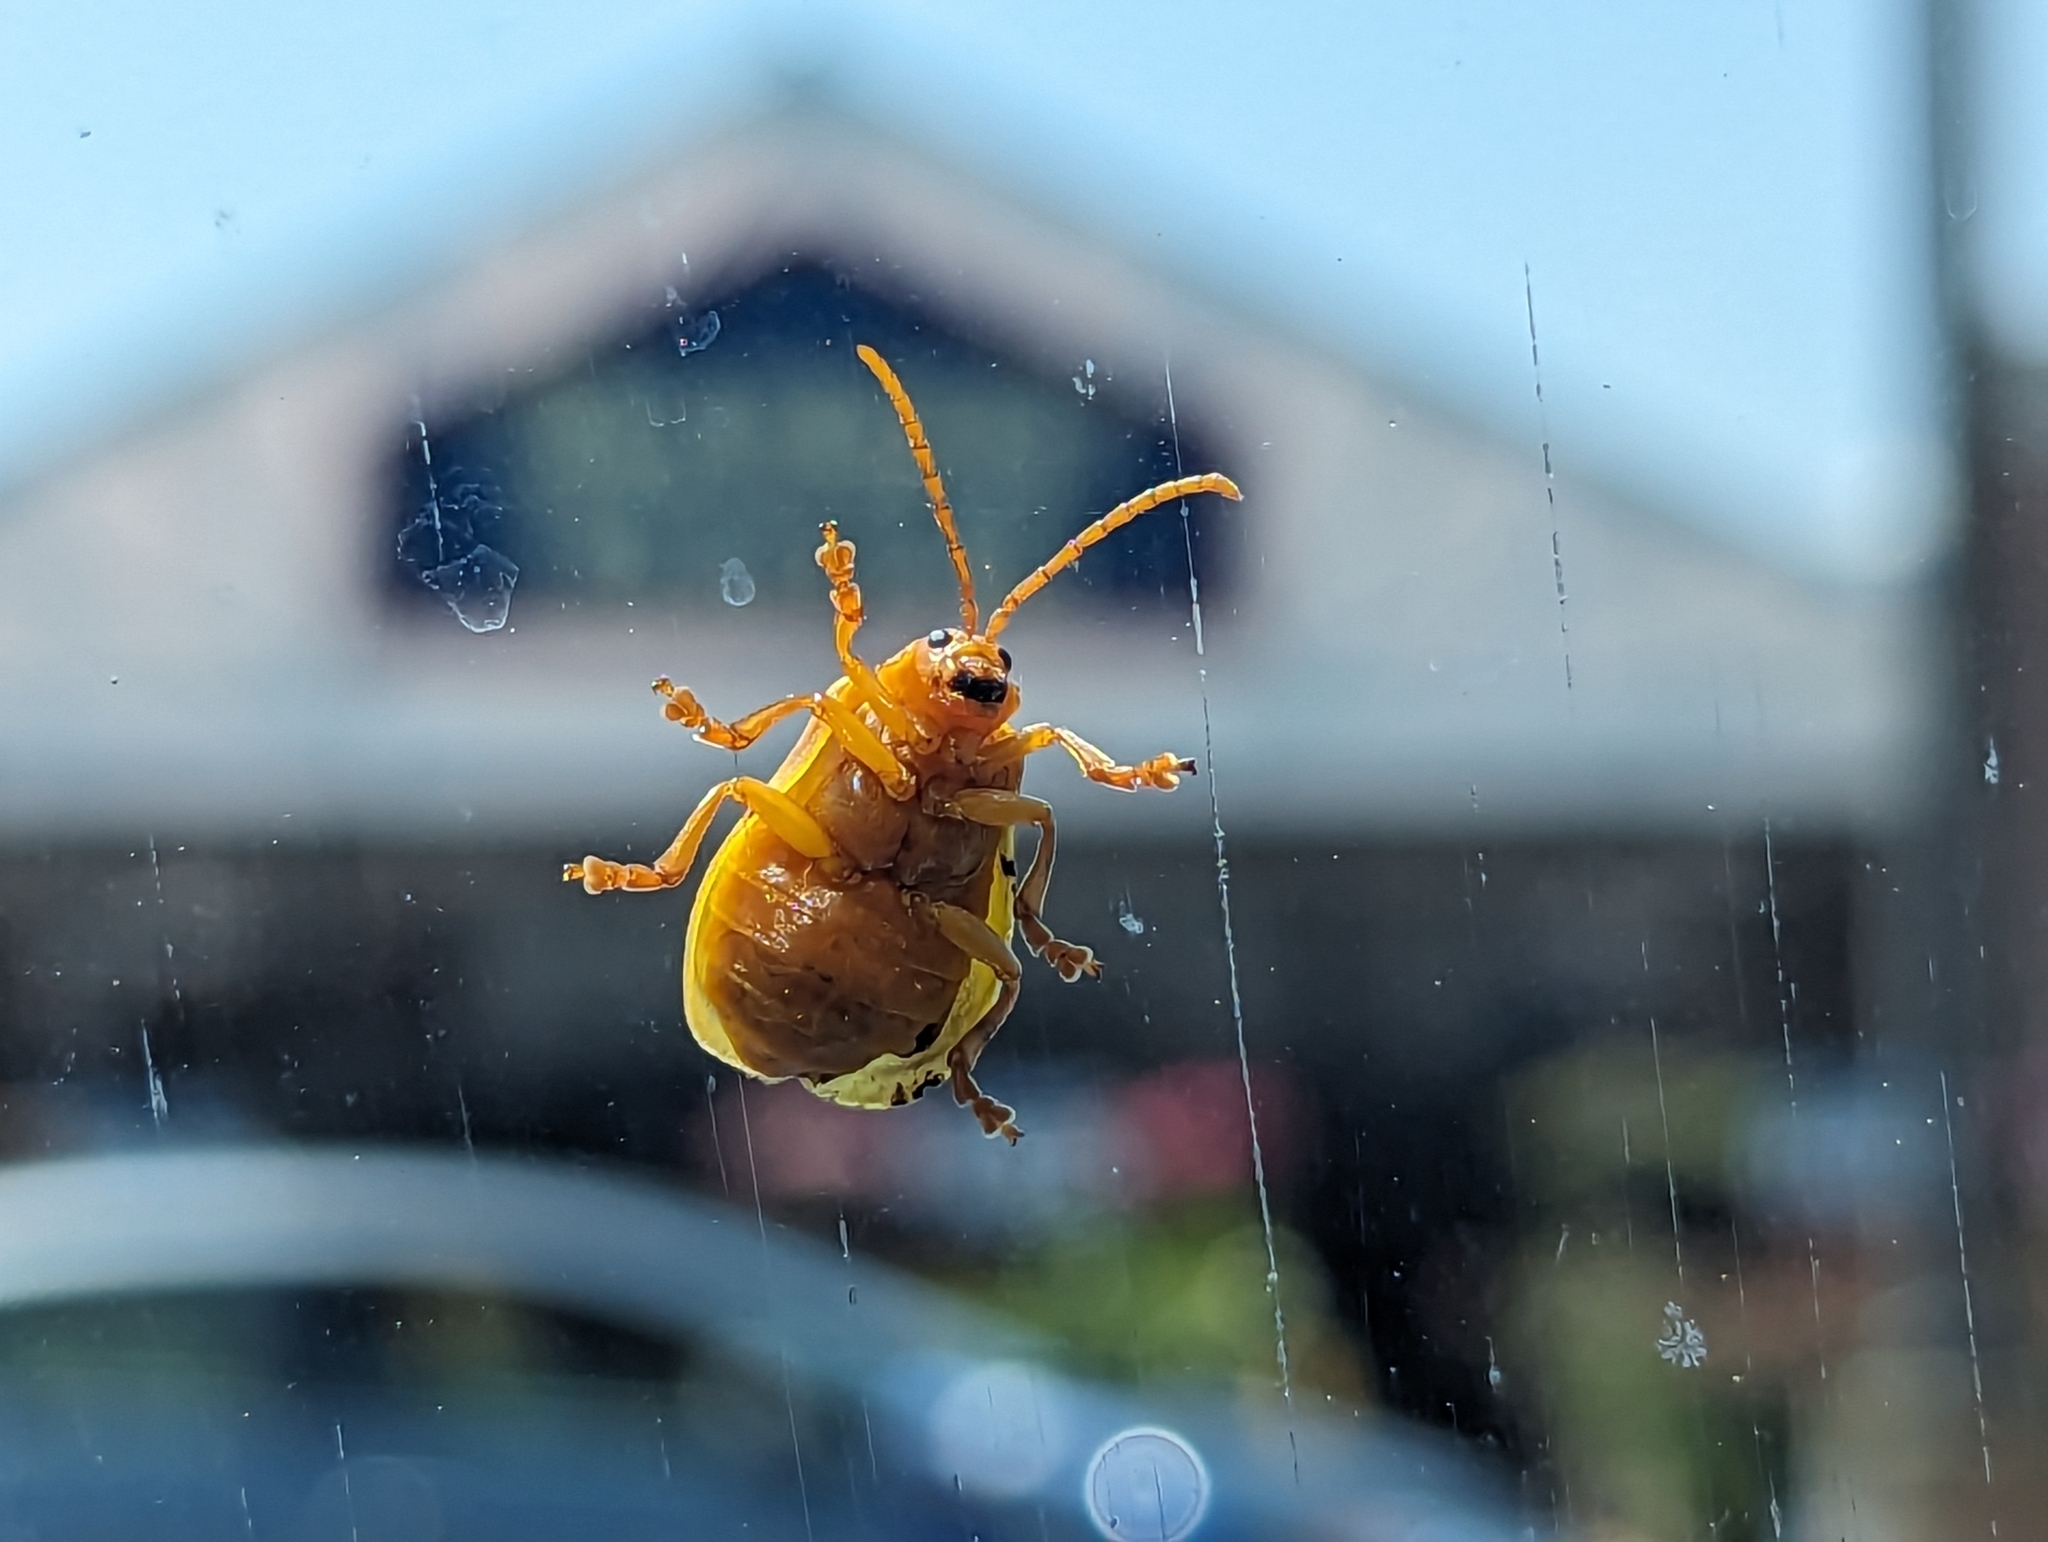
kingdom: Animalia
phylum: Arthropoda
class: Insecta
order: Coleoptera
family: Chrysomelidae
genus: Monocesta
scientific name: Monocesta coryli
